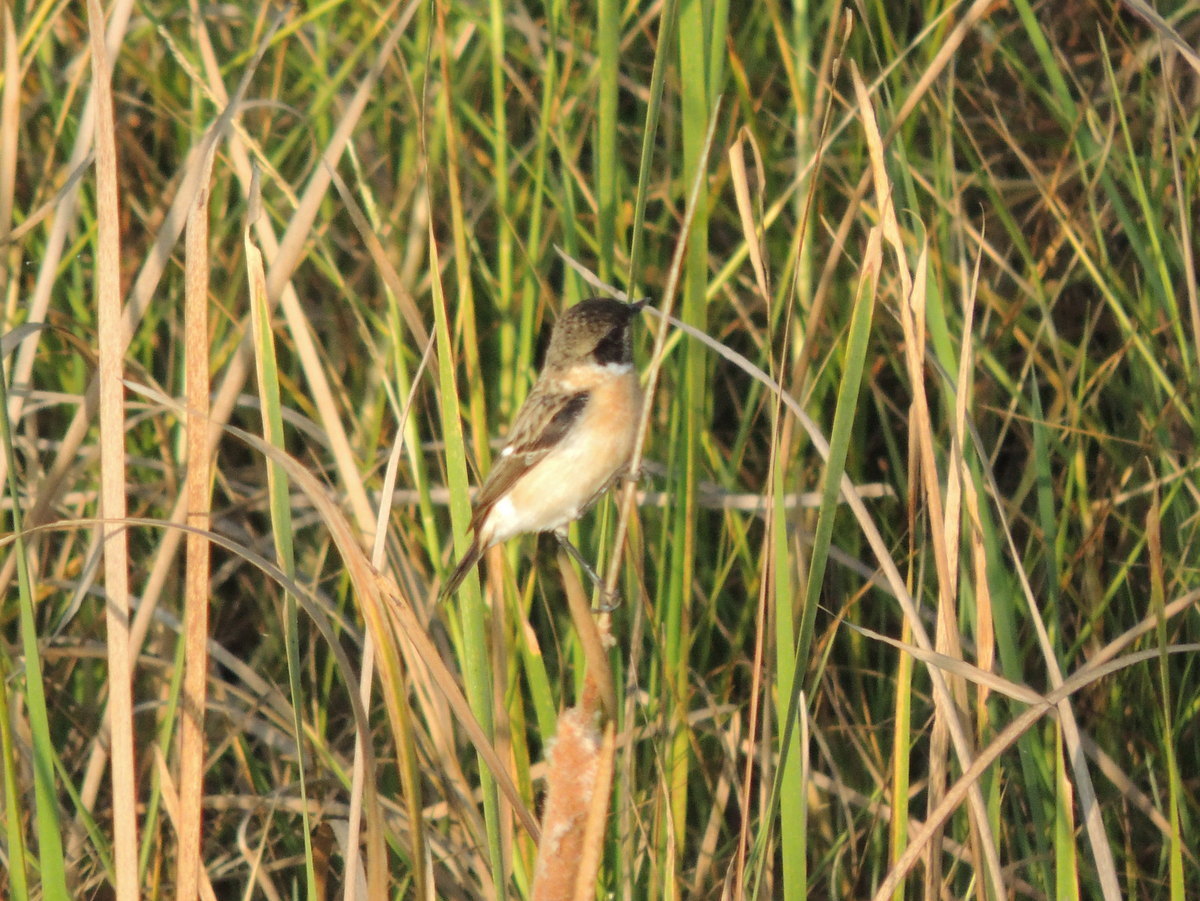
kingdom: Animalia
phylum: Chordata
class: Aves
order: Passeriformes
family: Muscicapidae
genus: Saxicola
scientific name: Saxicola maurus
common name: Siberian stonechat
